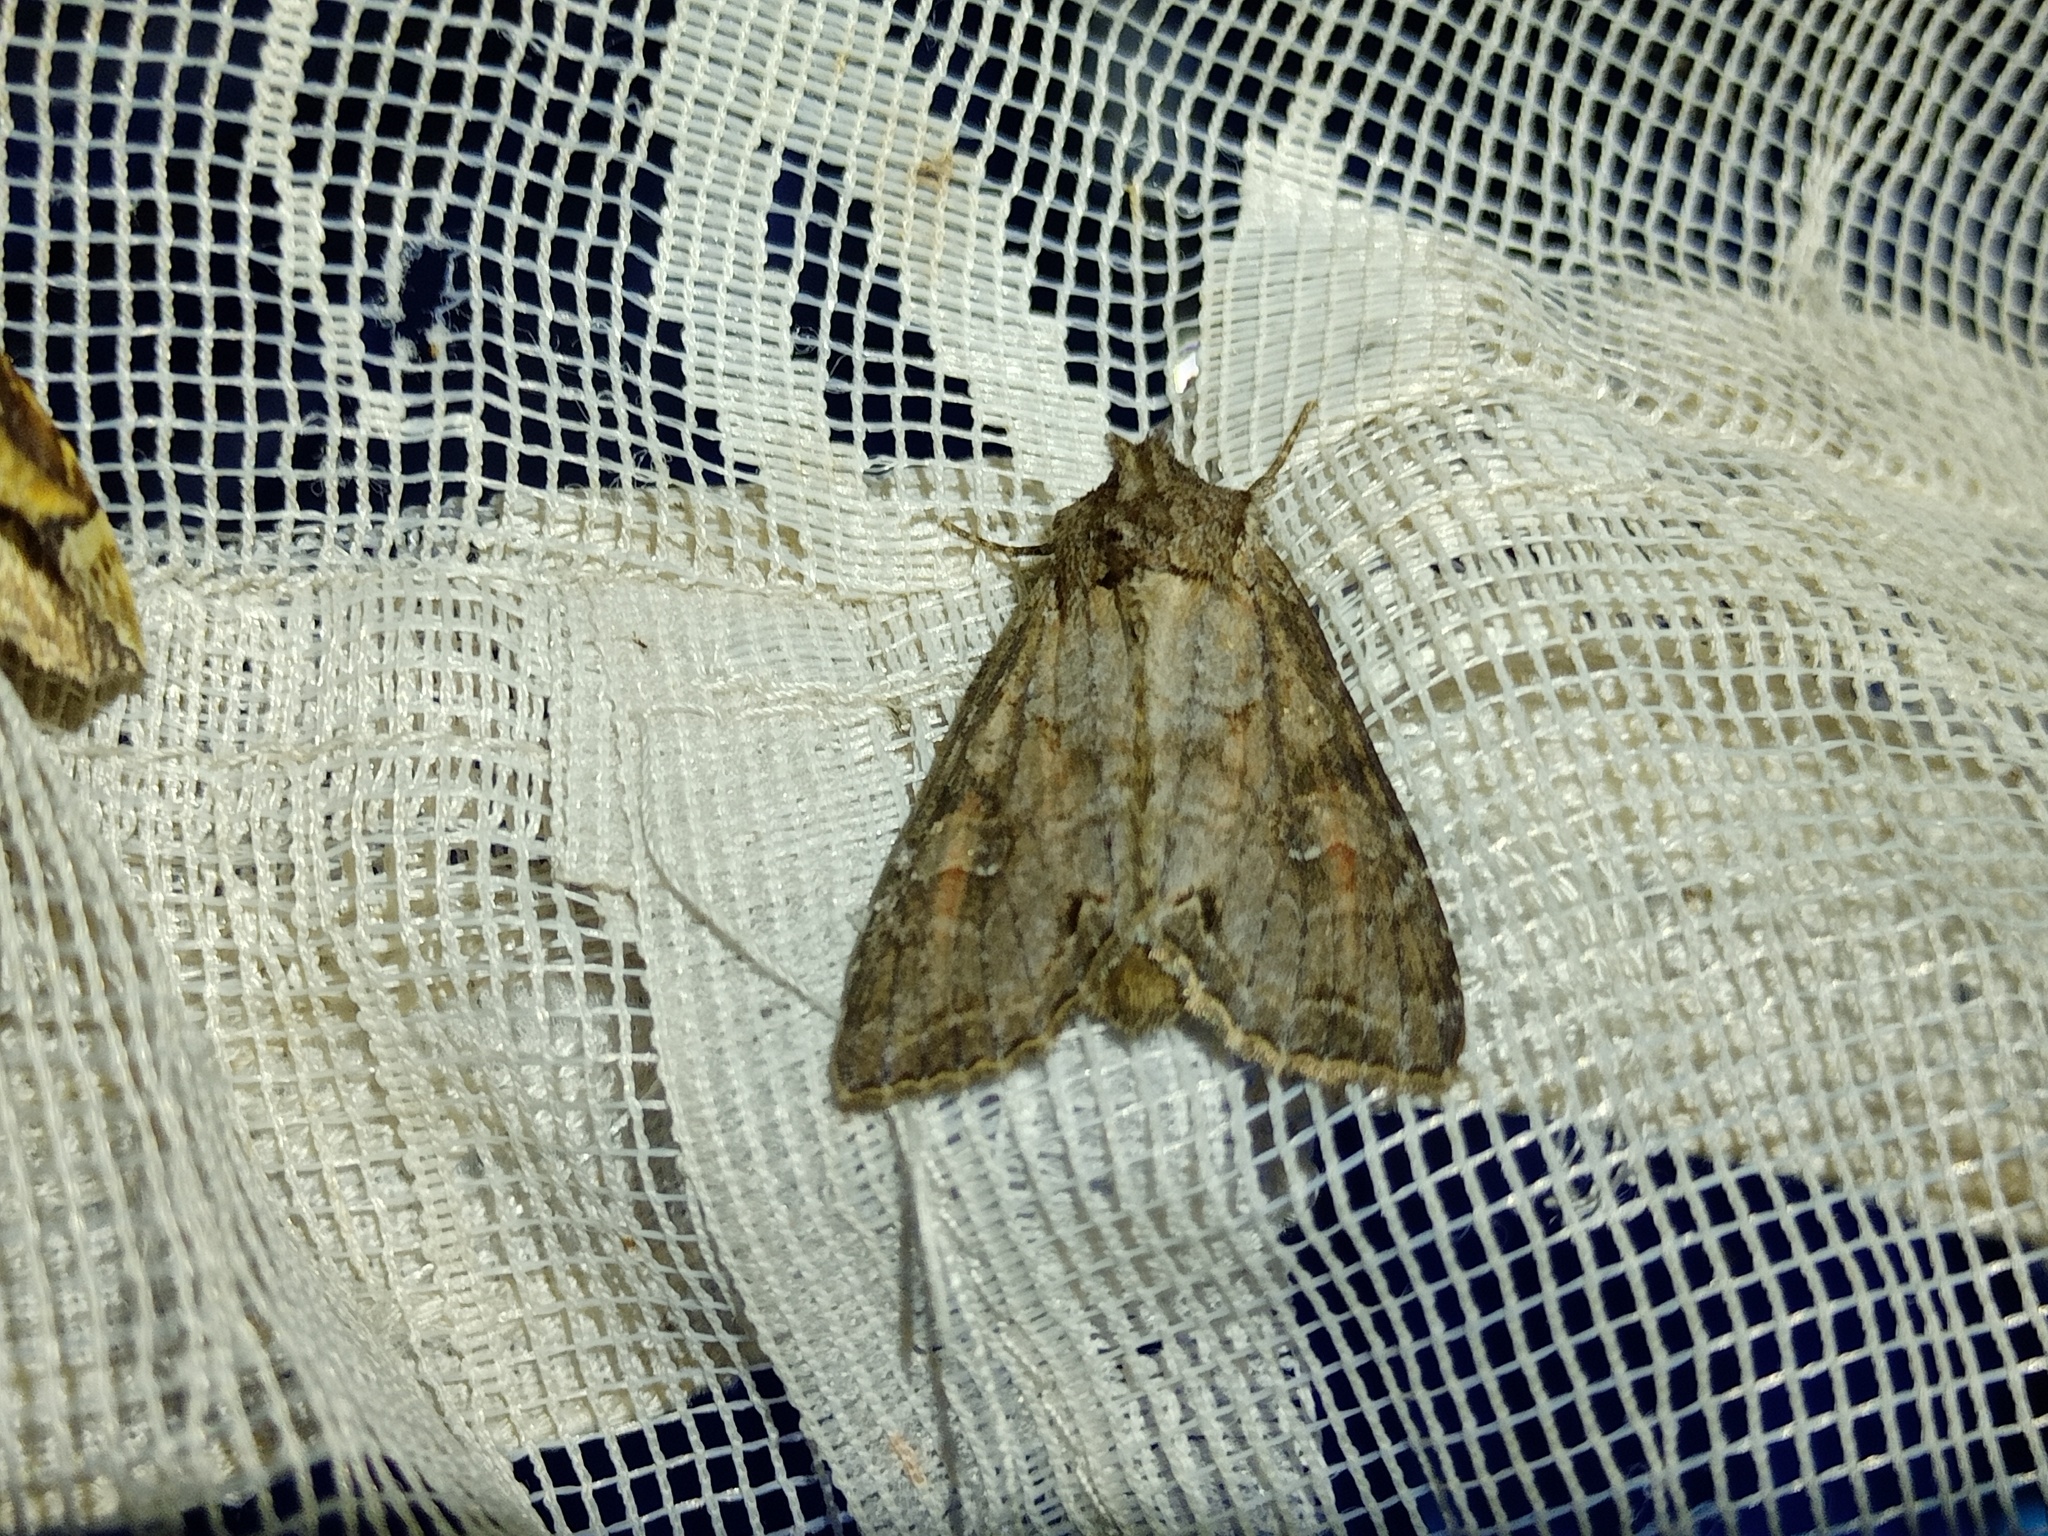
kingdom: Animalia
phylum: Arthropoda
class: Insecta
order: Lepidoptera
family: Noctuidae
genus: Polia
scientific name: Polia bombycina
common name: Pale shining brown
